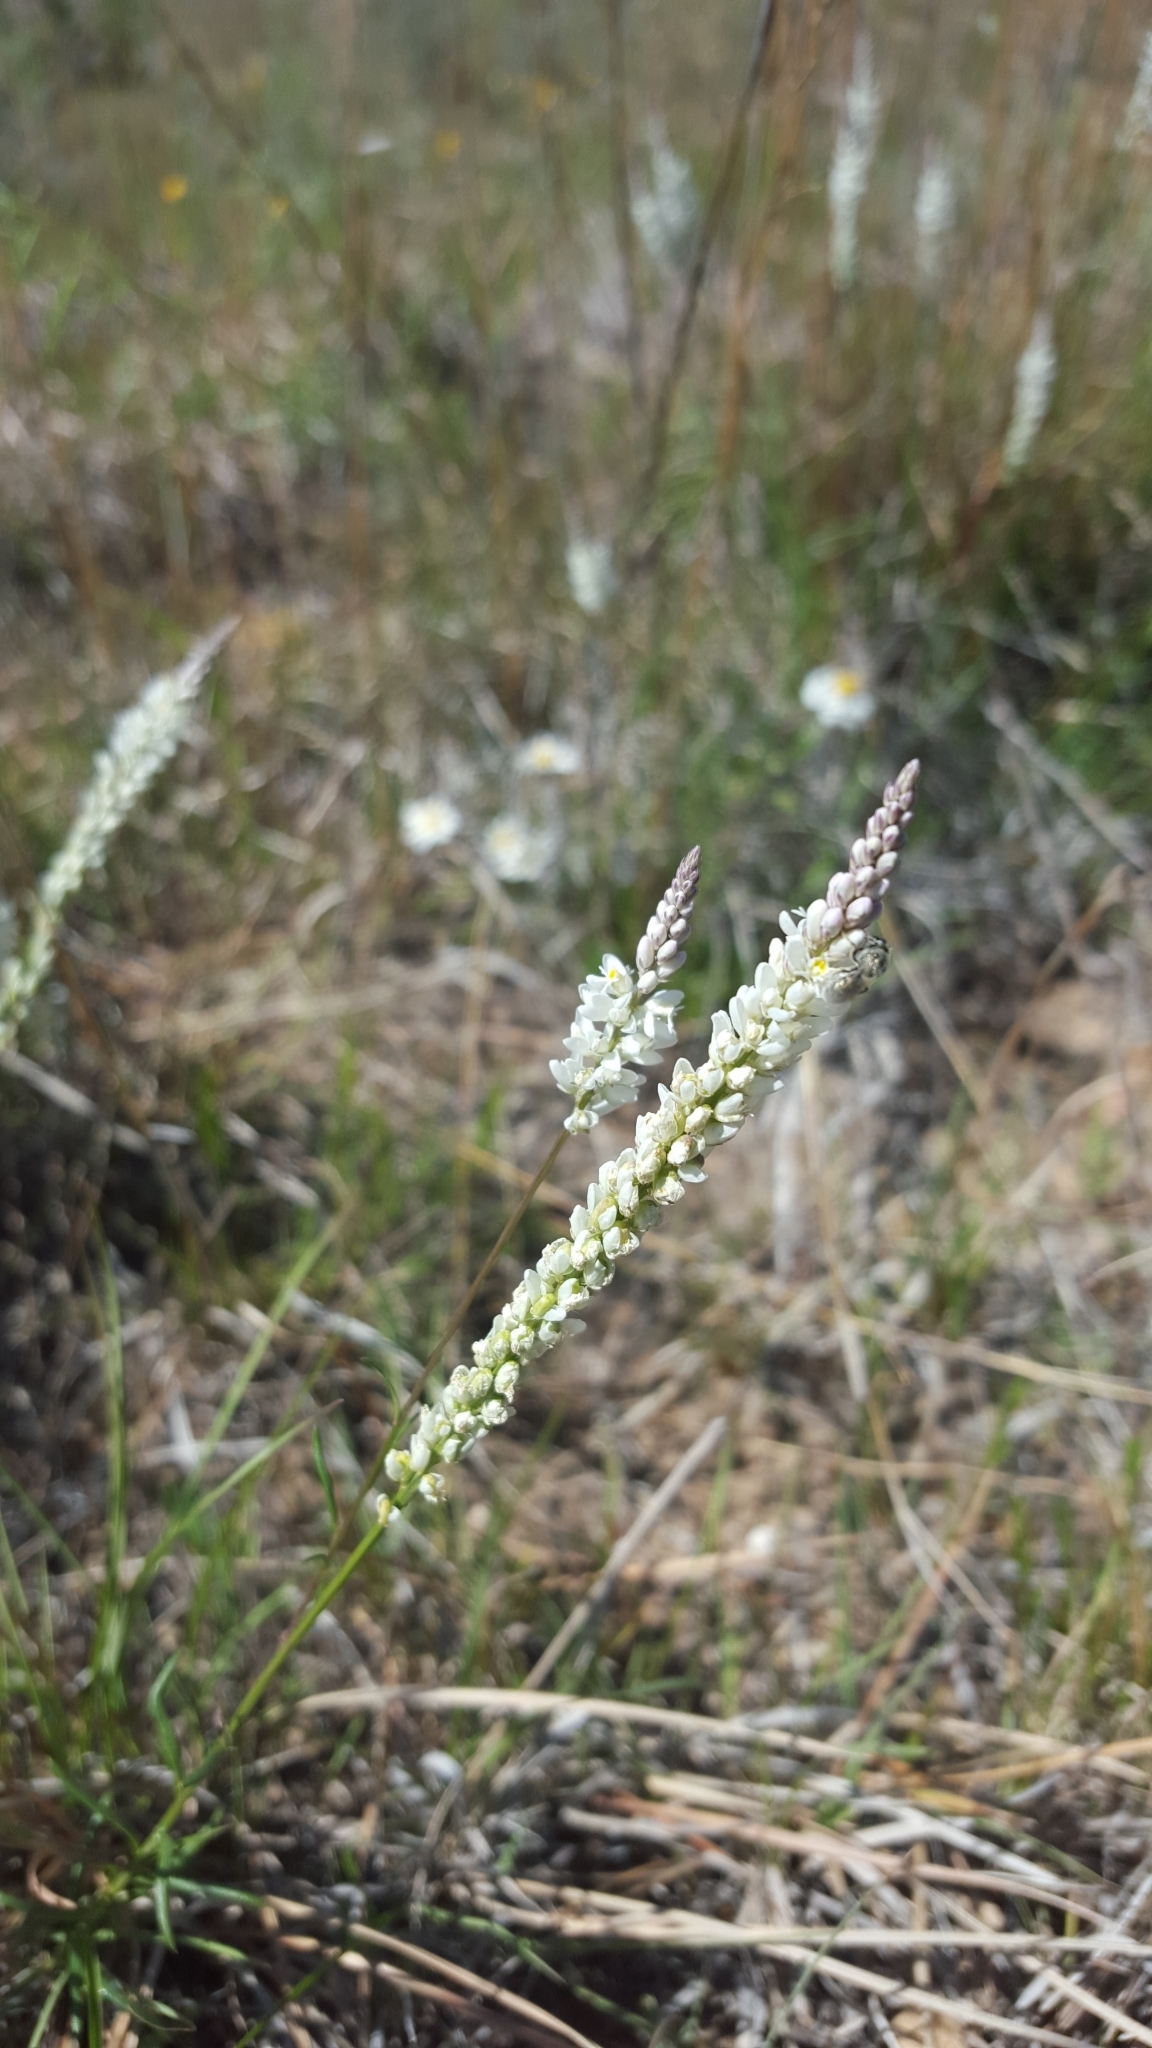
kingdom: Plantae
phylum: Tracheophyta
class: Magnoliopsida
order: Fabales
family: Polygalaceae
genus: Polygala
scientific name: Polygala alba
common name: White milkwort
